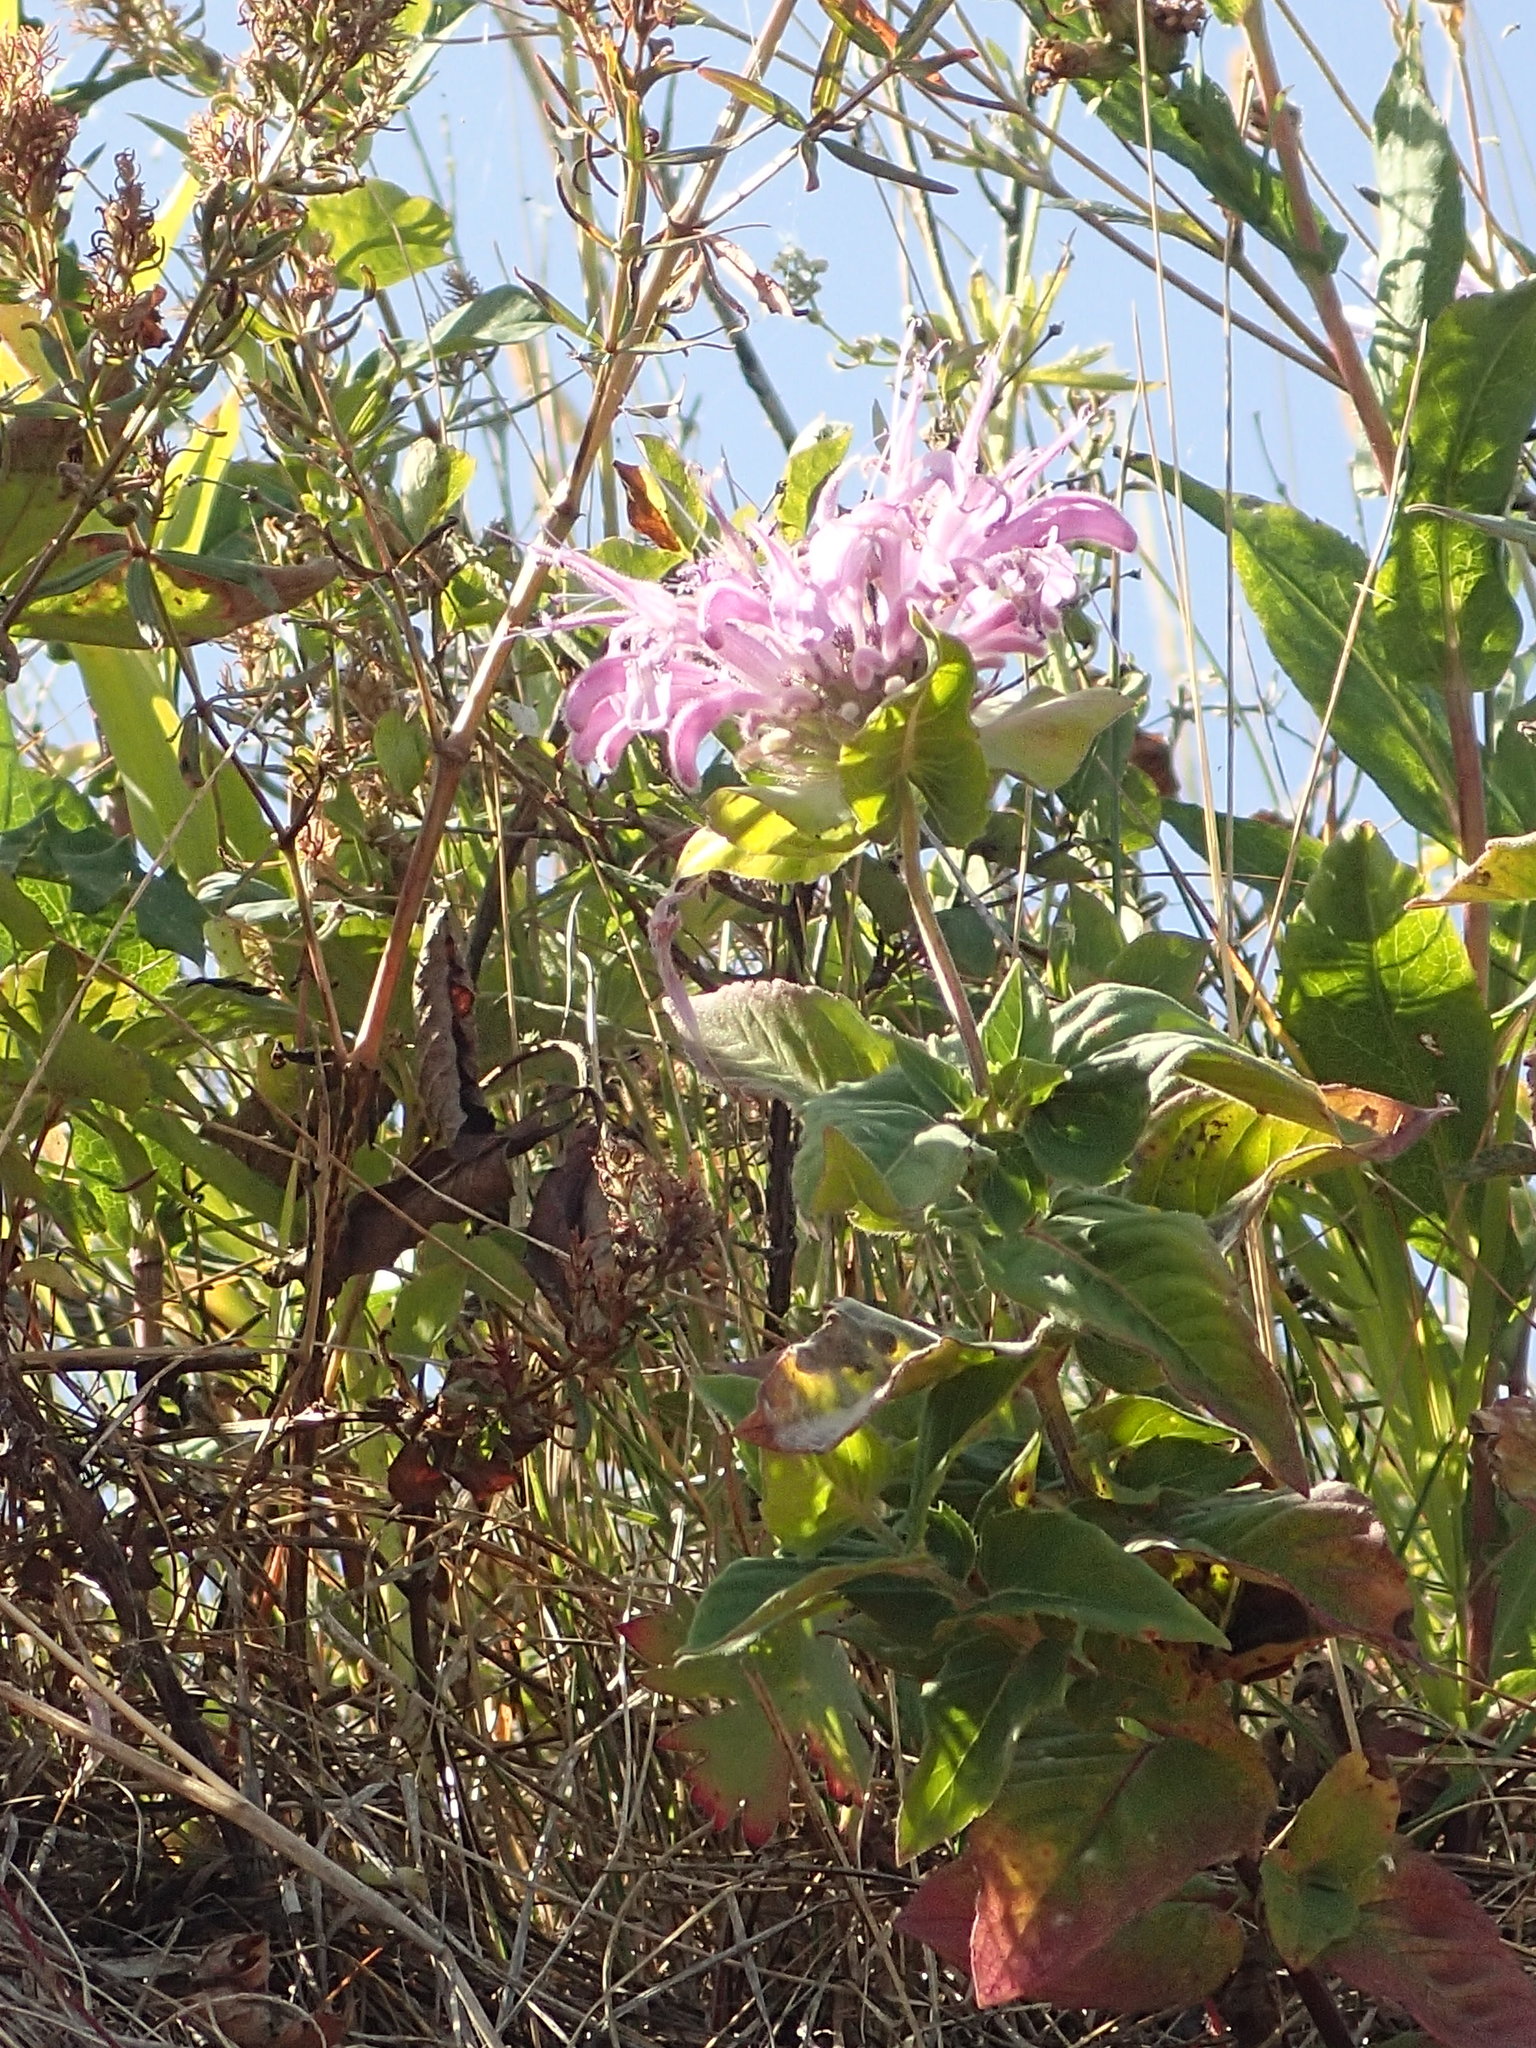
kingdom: Plantae
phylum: Tracheophyta
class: Magnoliopsida
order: Lamiales
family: Lamiaceae
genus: Monarda
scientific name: Monarda fistulosa
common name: Purple beebalm
